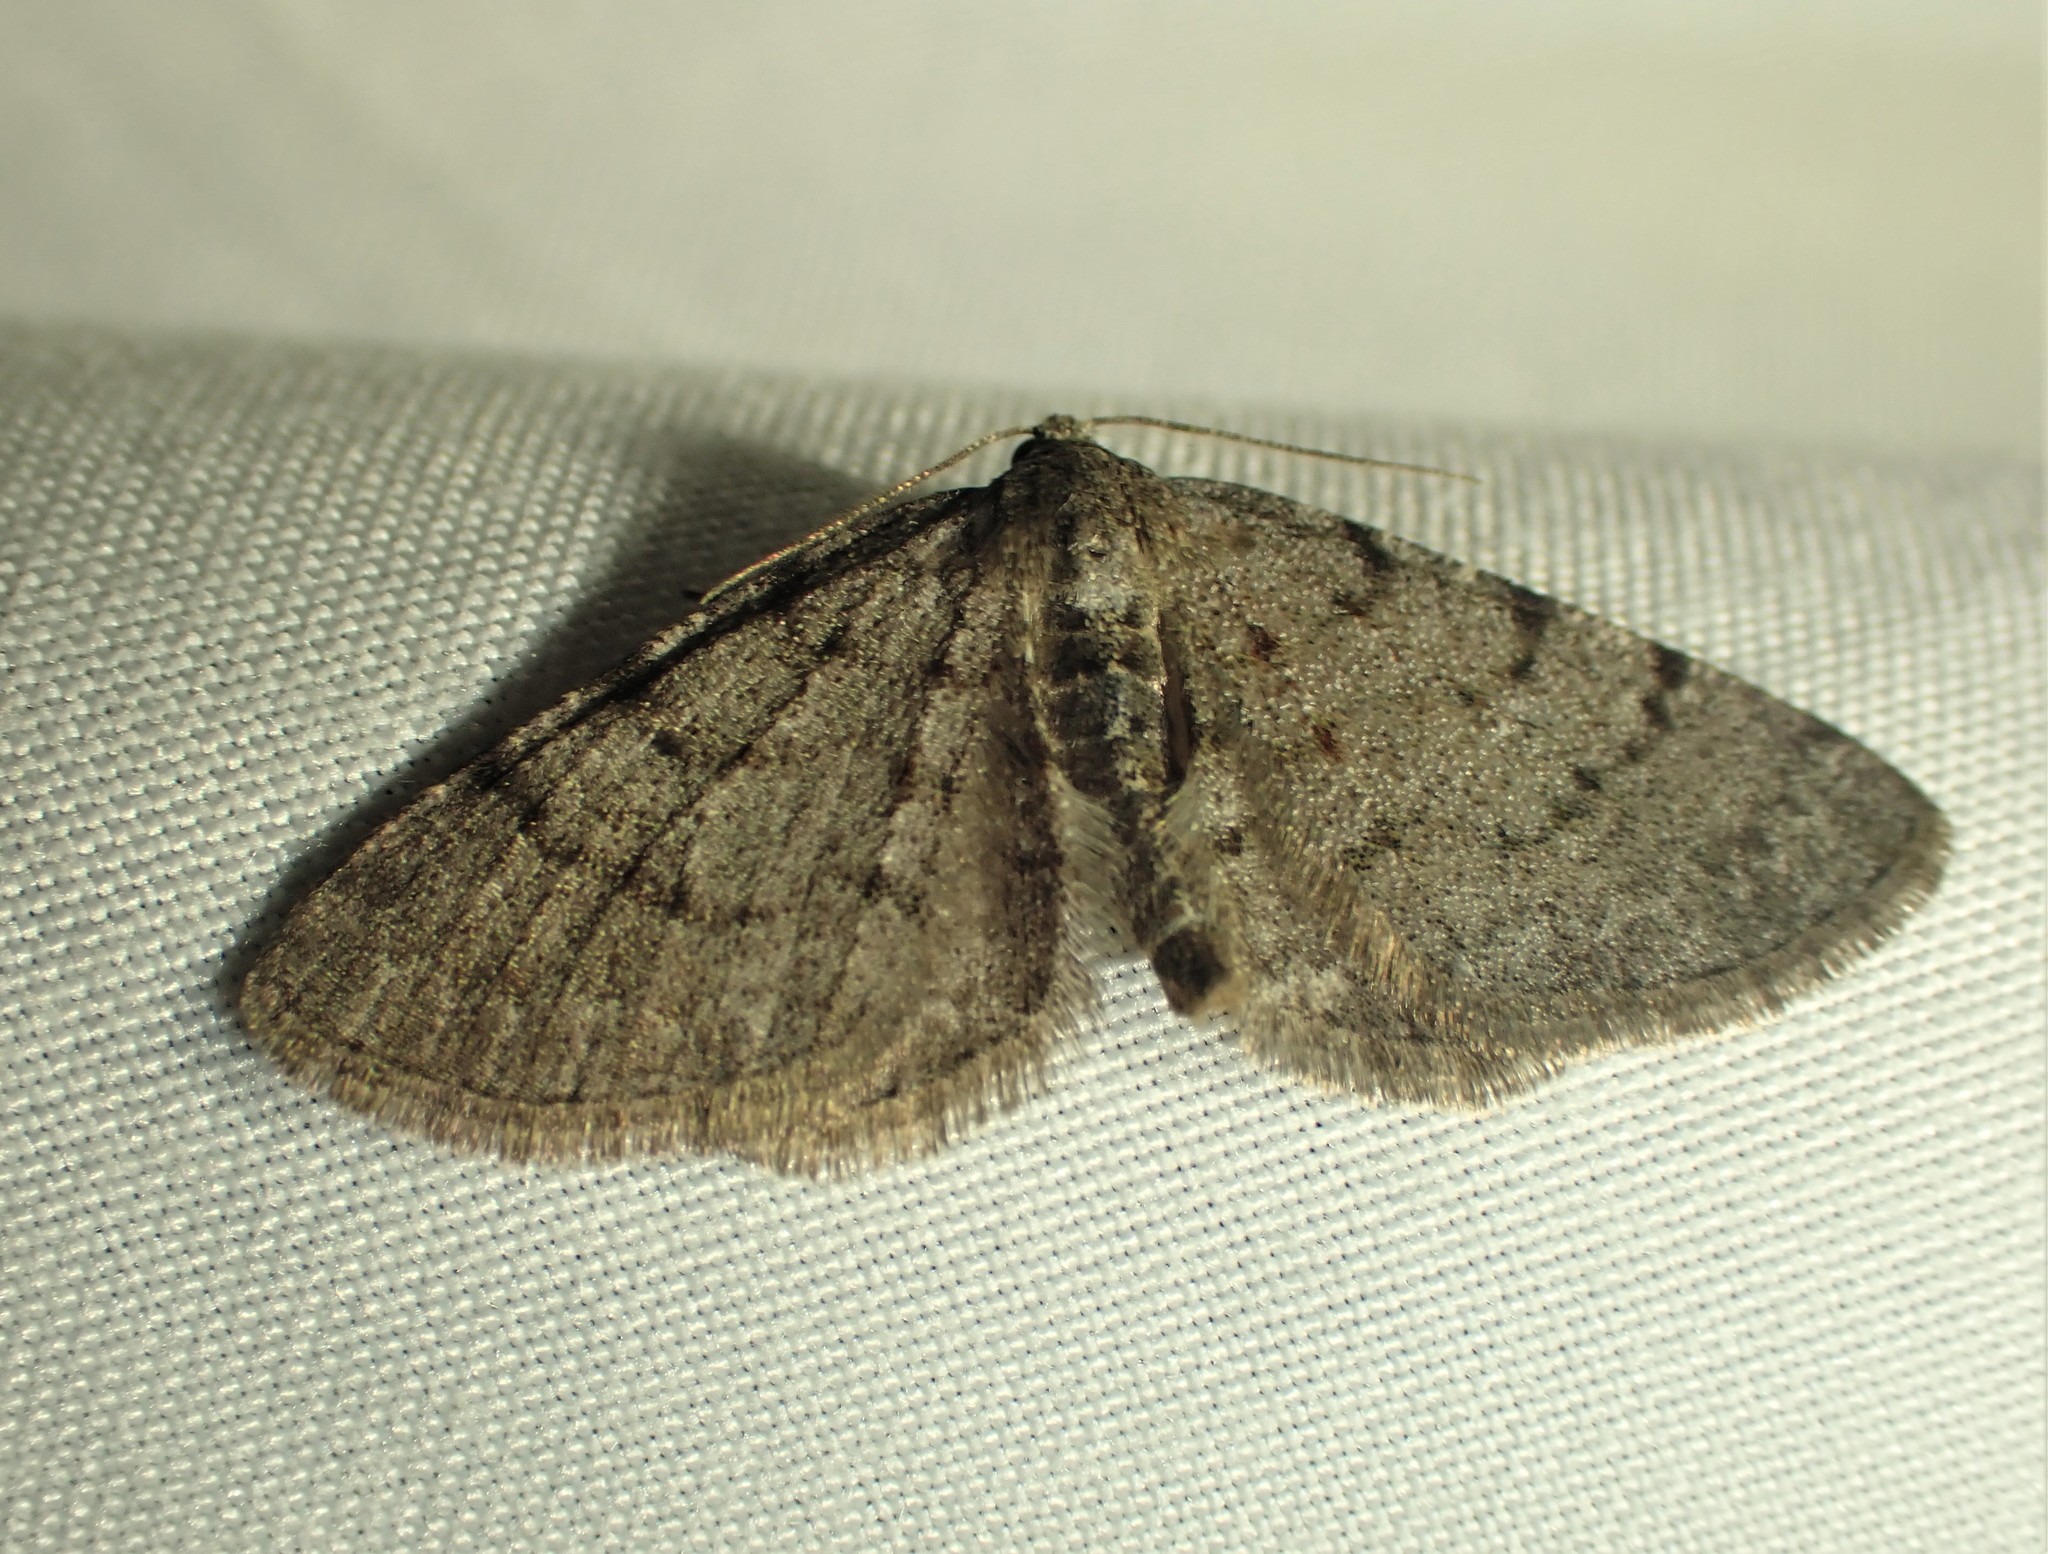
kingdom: Animalia
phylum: Arthropoda
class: Insecta
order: Lepidoptera
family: Geometridae
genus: Aethalura
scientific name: Aethalura intertexta
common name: Four-barred gray
